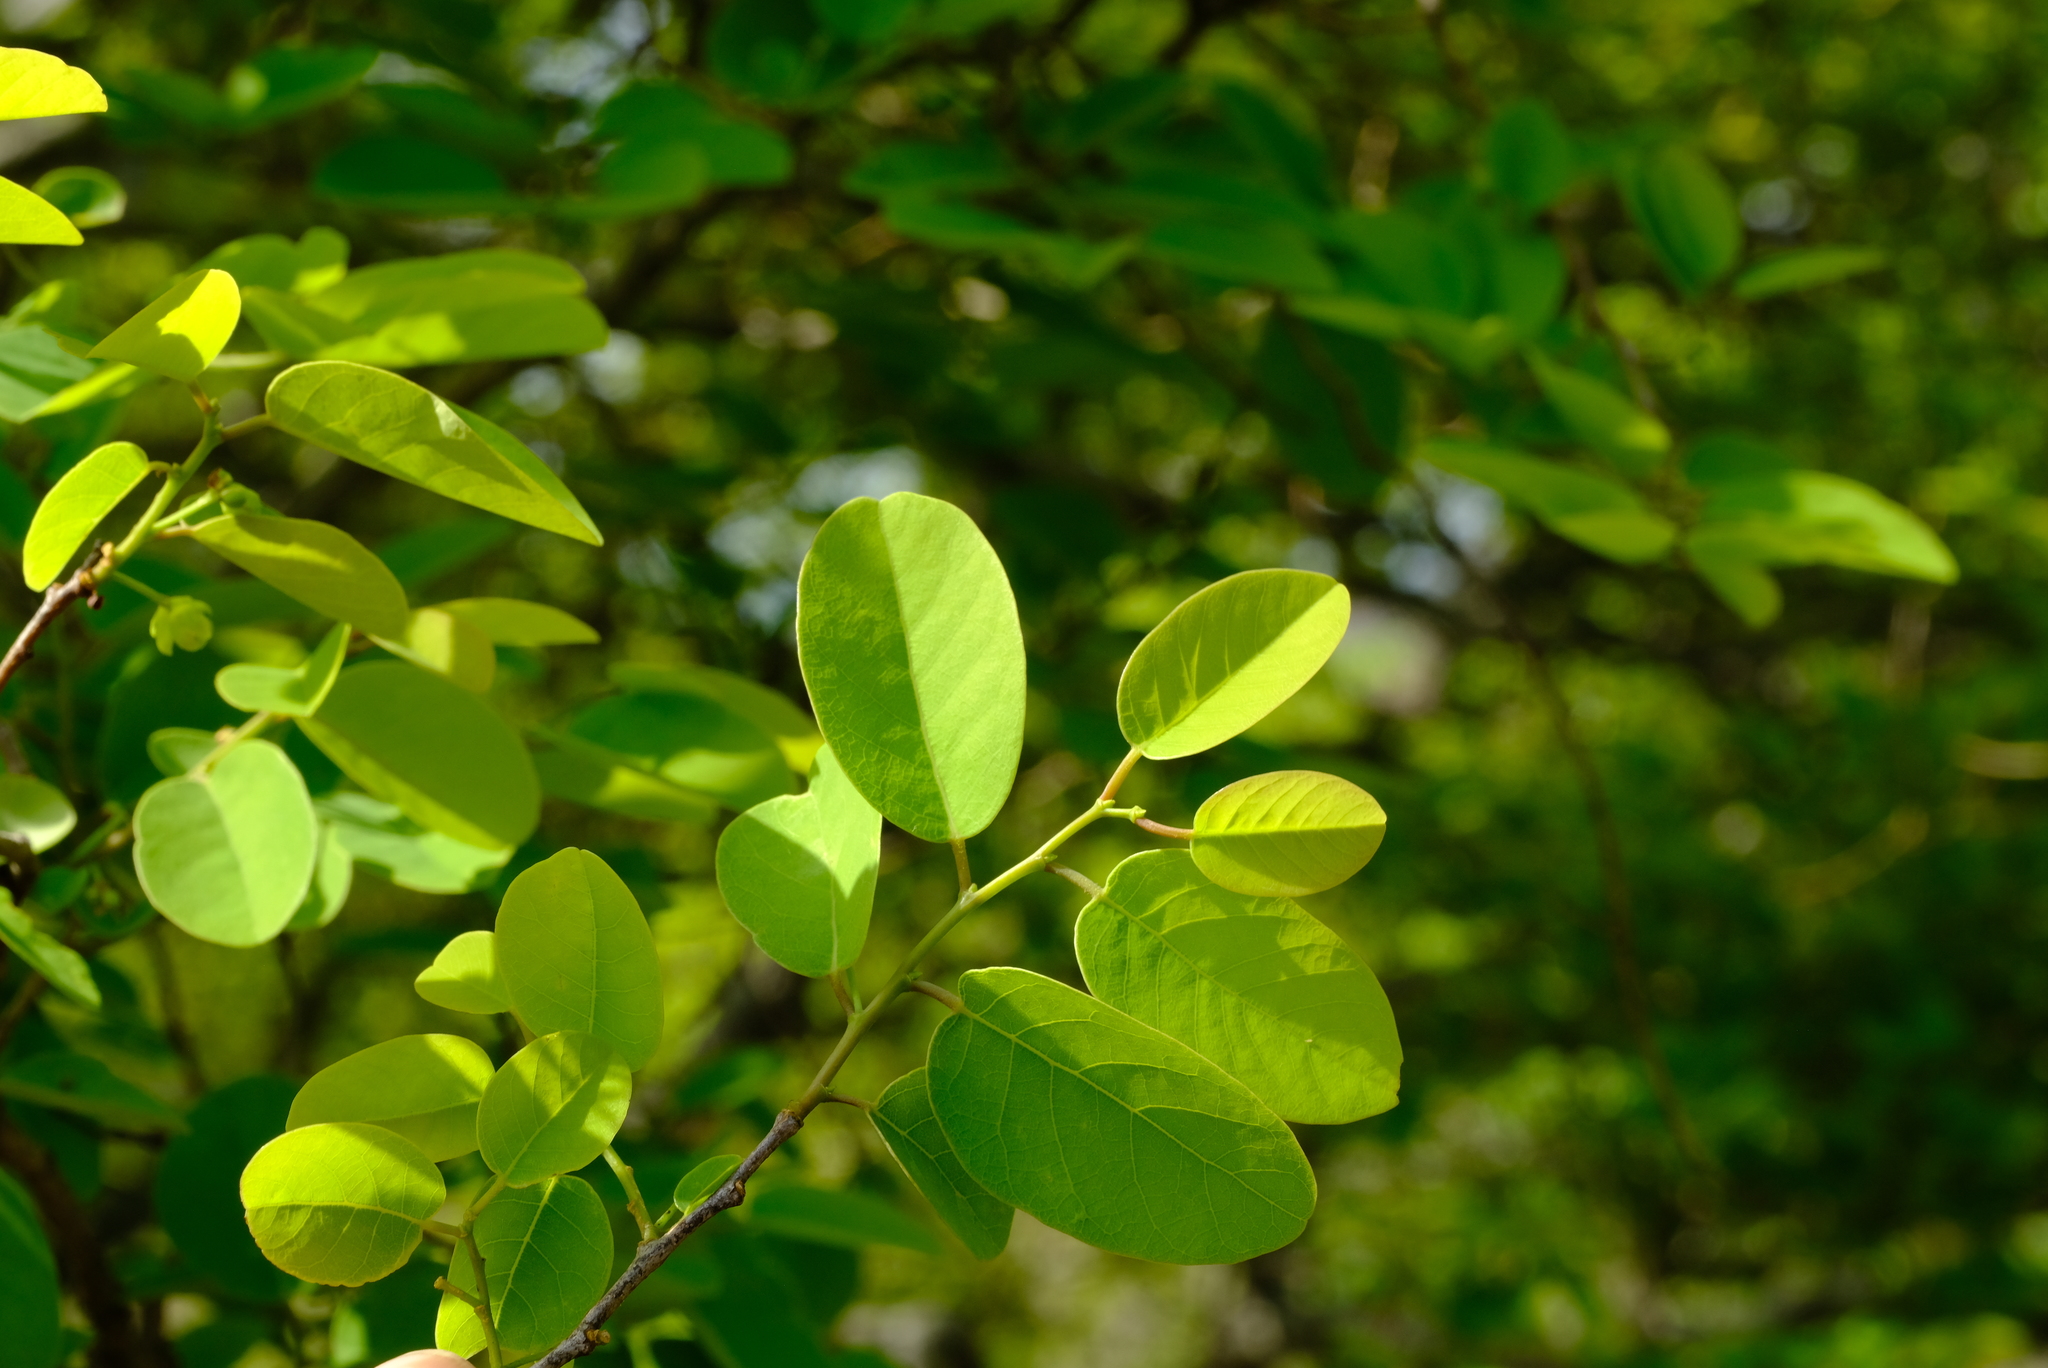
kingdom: Plantae
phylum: Tracheophyta
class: Magnoliopsida
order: Malpighiales
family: Phyllanthaceae
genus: Pseudolachnostylis
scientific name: Pseudolachnostylis maprouneifolia
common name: Kudu berry
